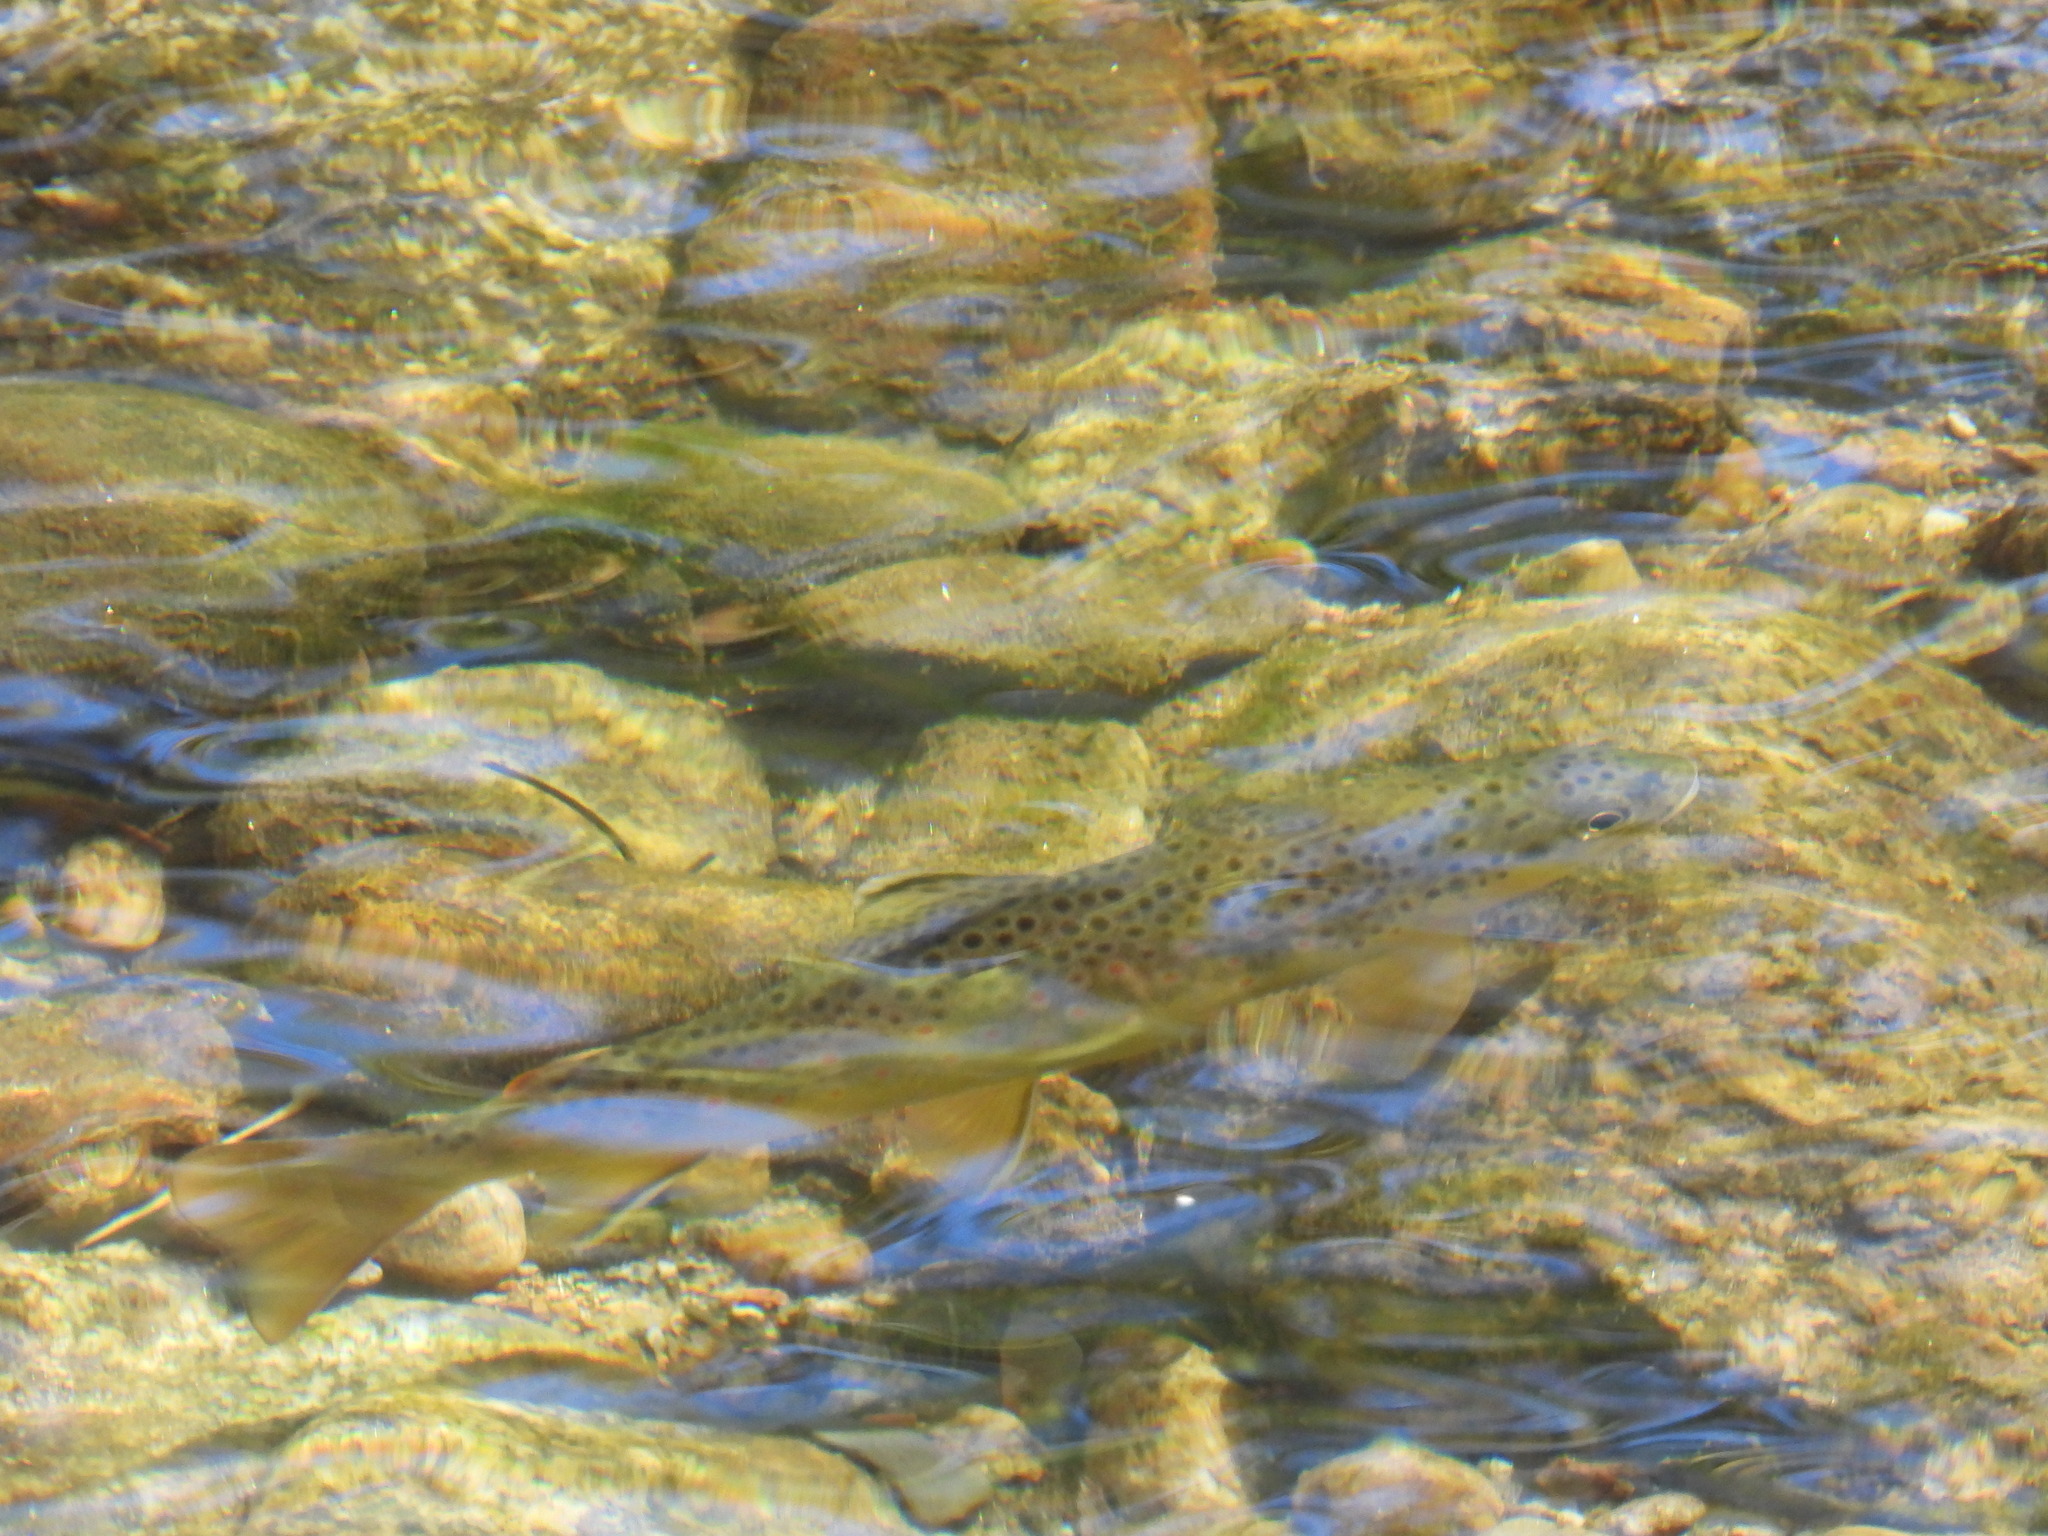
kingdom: Animalia
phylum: Chordata
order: Salmoniformes
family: Salmonidae
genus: Salmo
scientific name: Salmo trutta
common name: Brown trout
